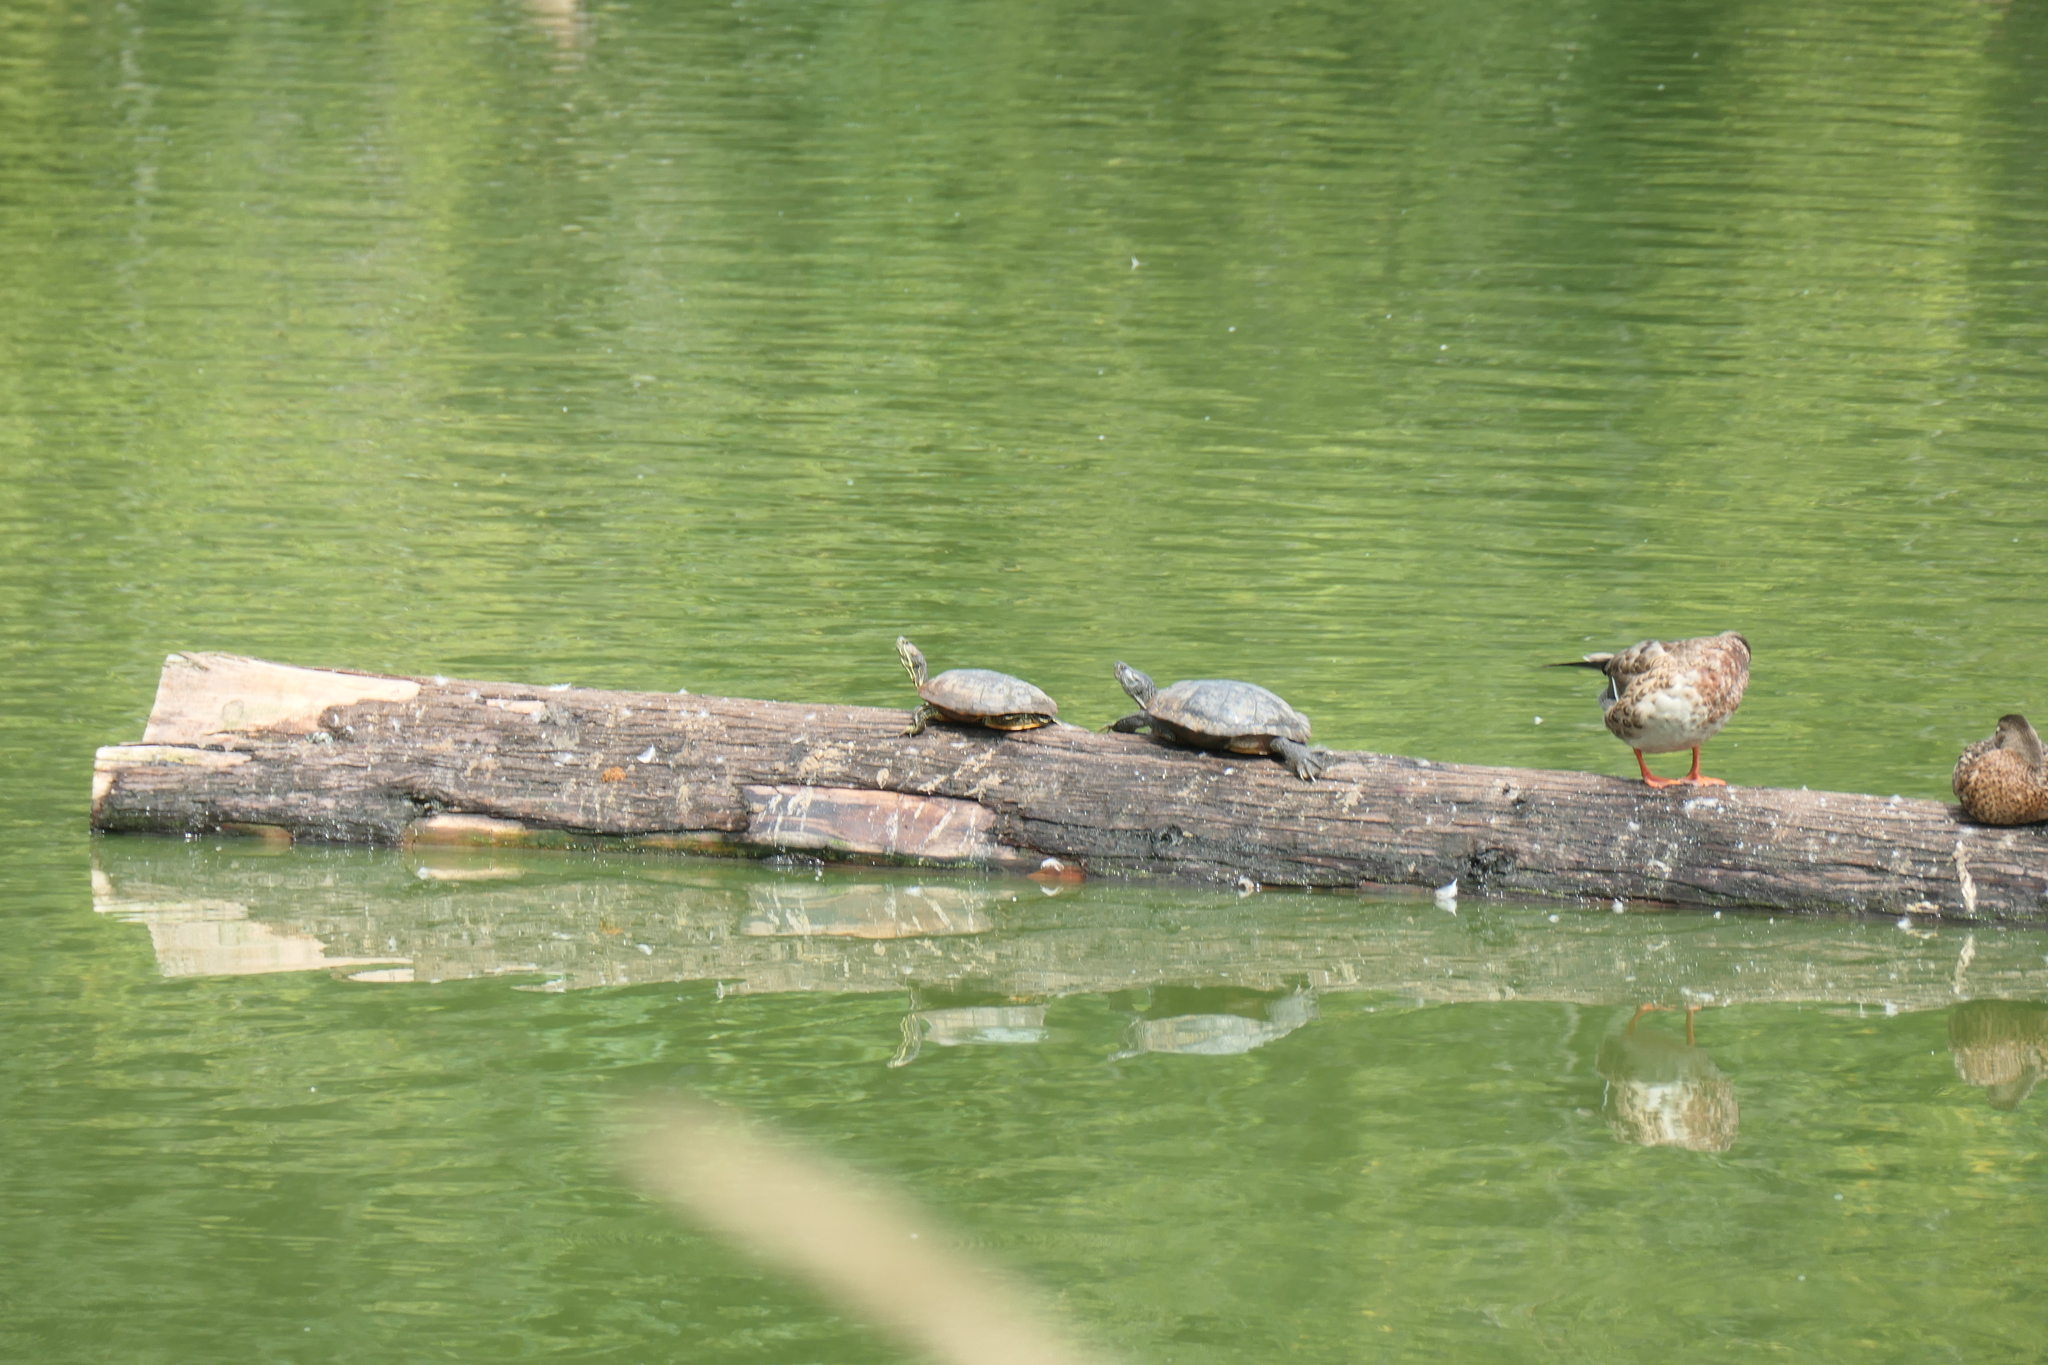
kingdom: Animalia
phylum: Chordata
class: Testudines
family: Emydidae
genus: Trachemys
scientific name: Trachemys scripta
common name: Slider
